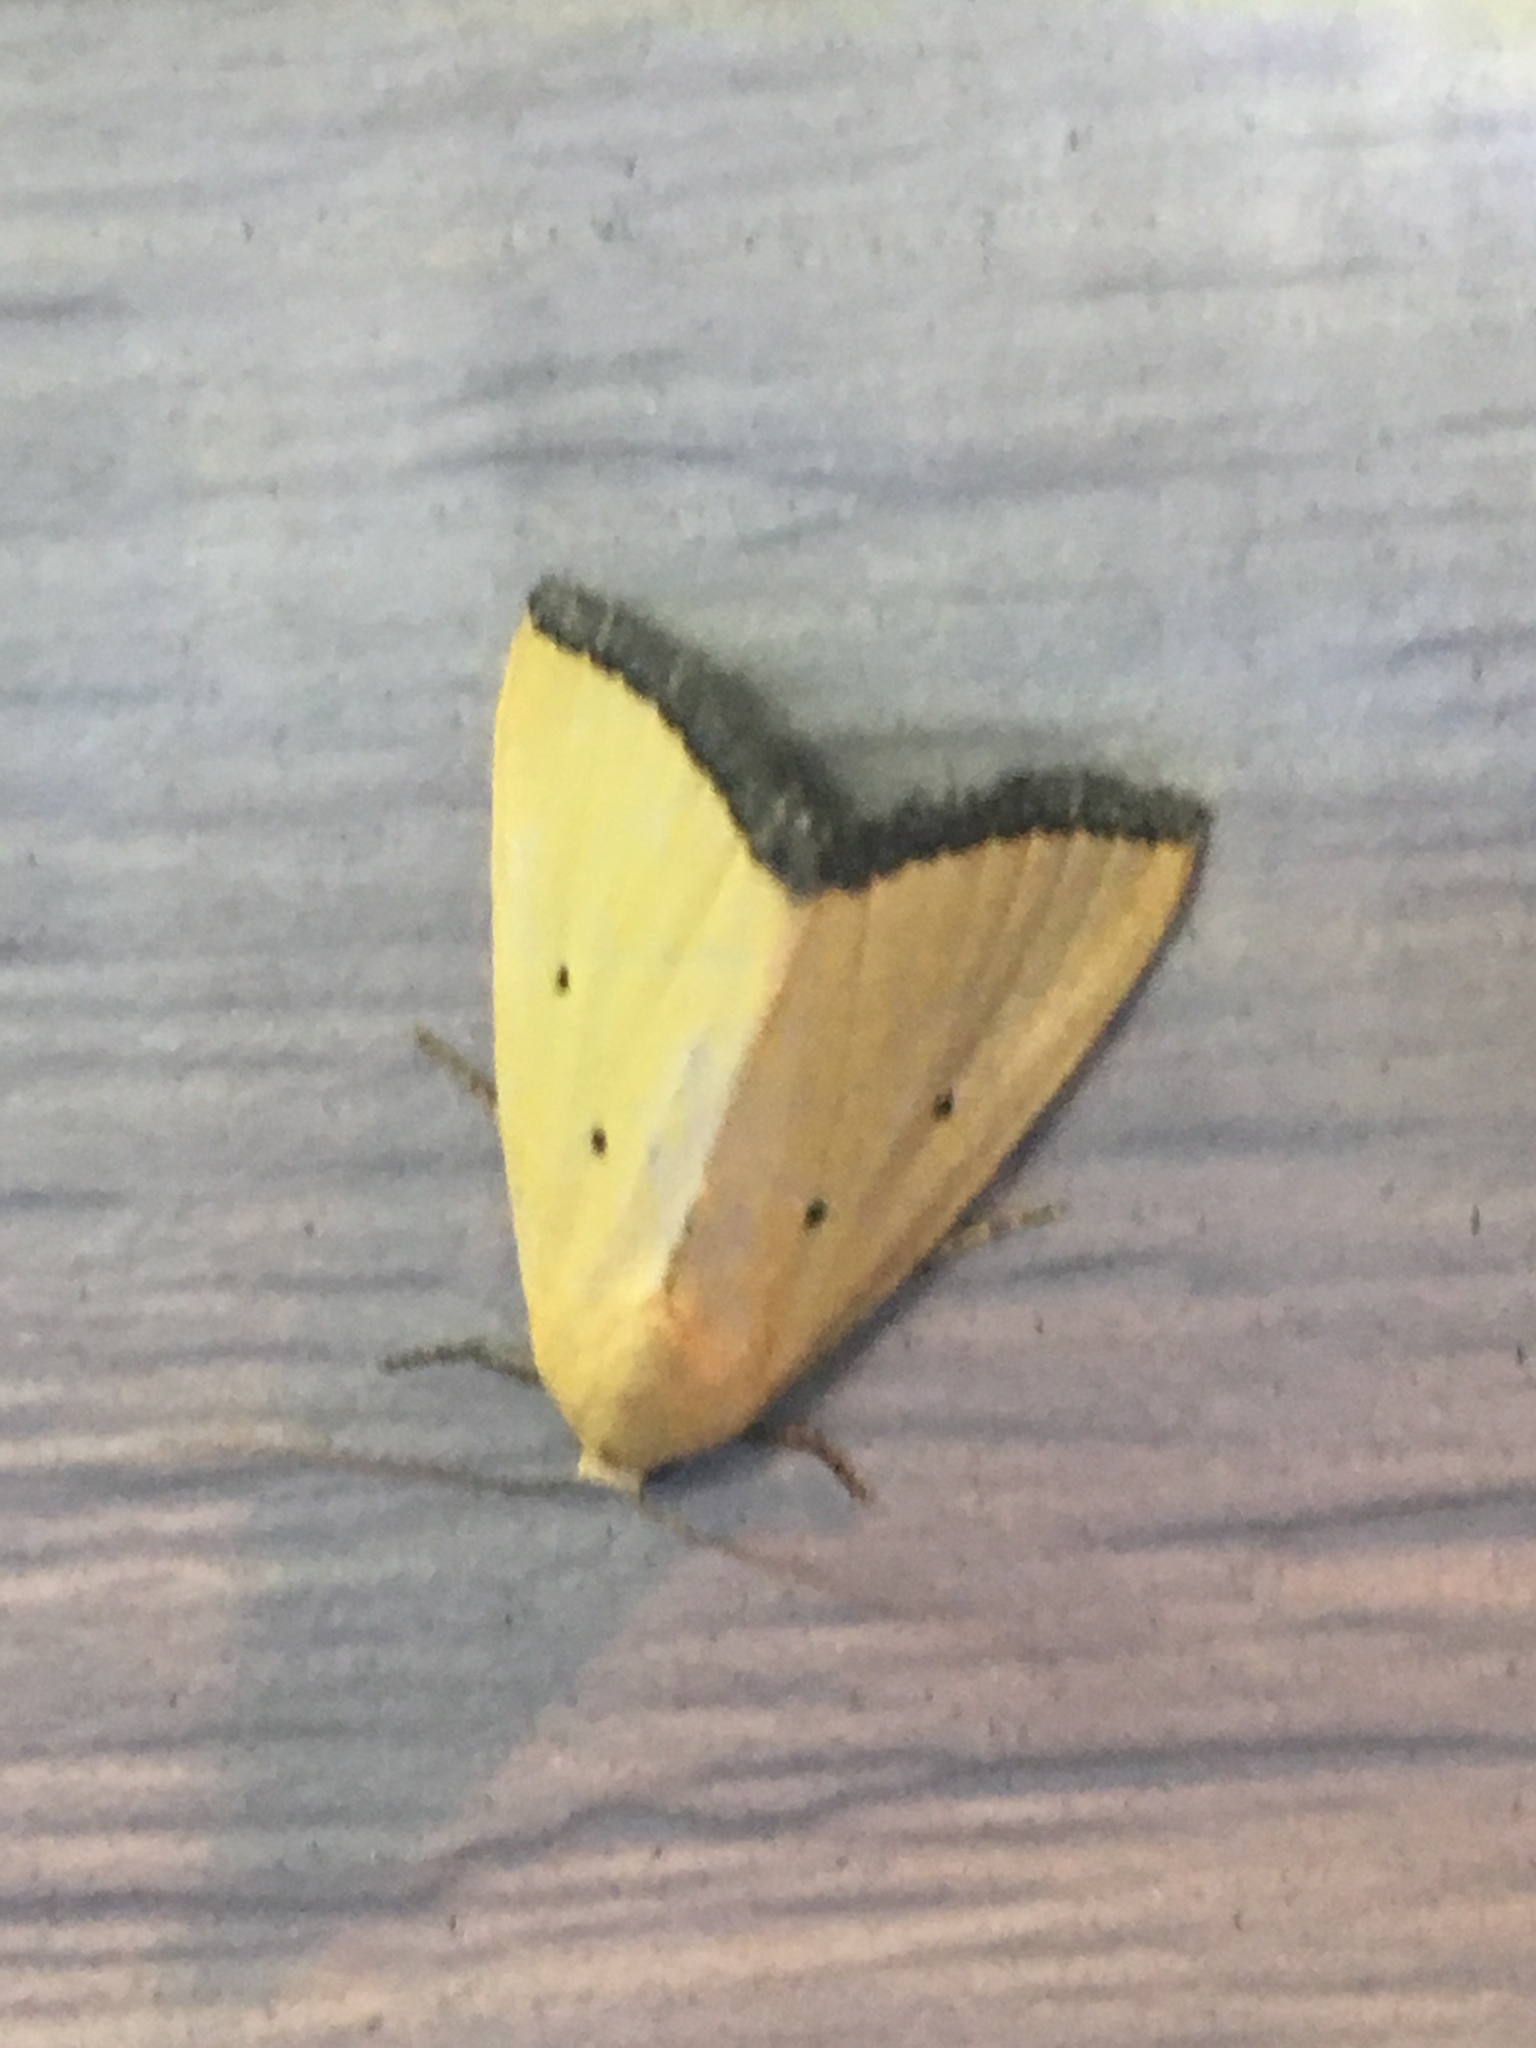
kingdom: Animalia
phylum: Arthropoda
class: Insecta
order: Lepidoptera
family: Noctuidae
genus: Marimatha
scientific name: Marimatha nigrofimbria
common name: Black-bordered lemon moth
